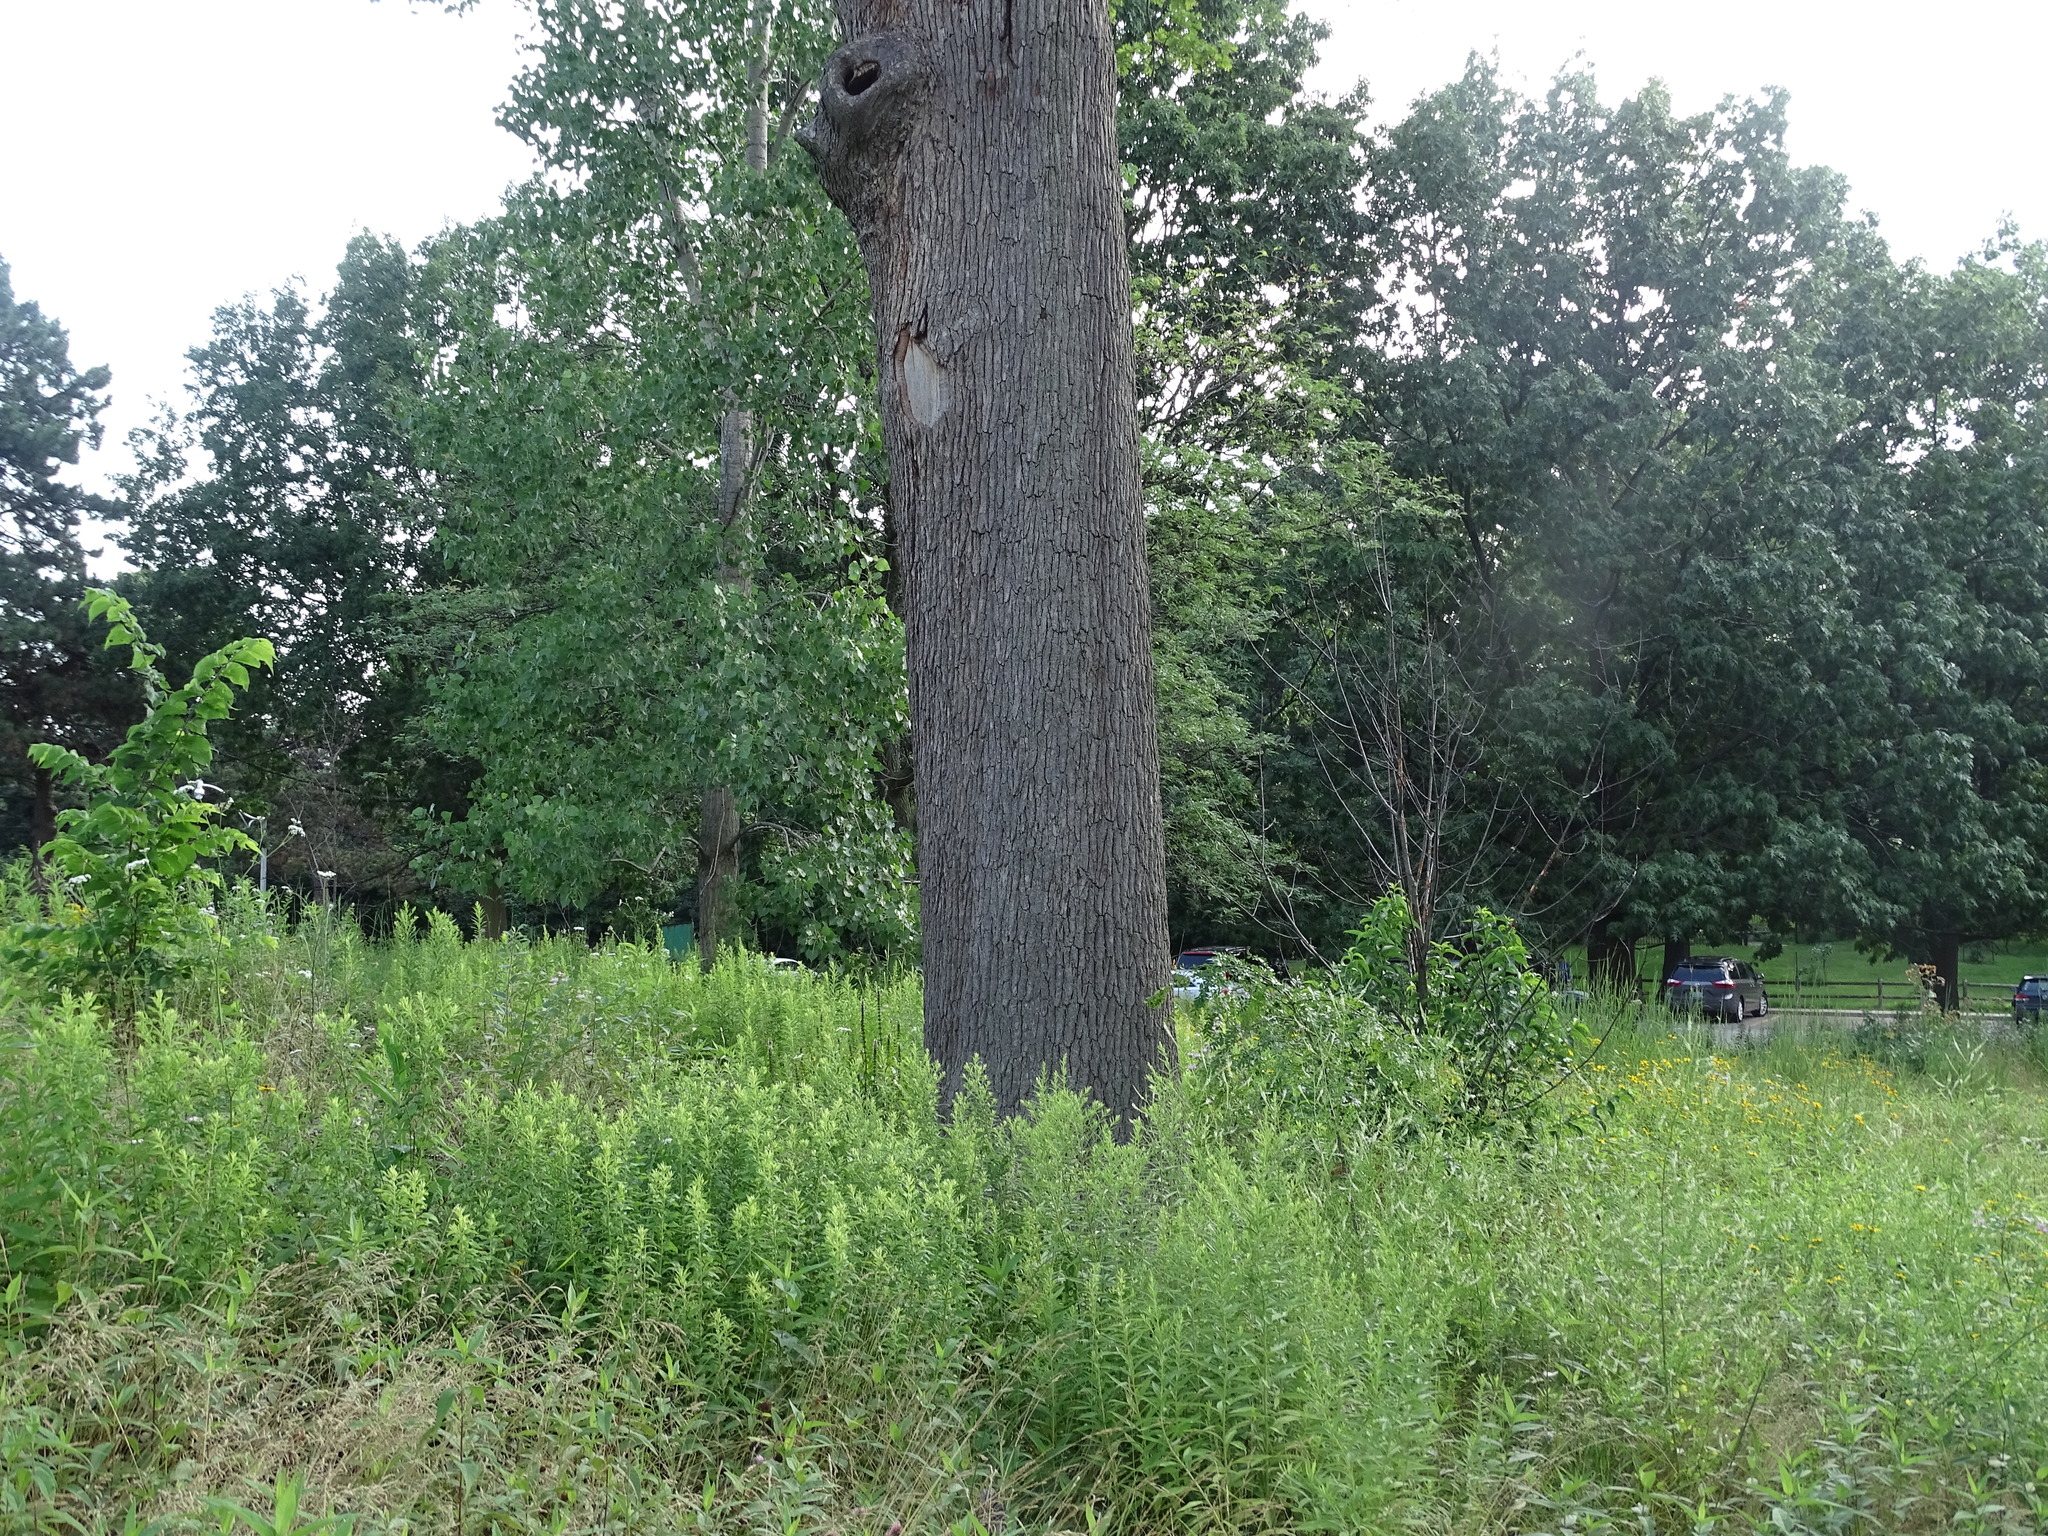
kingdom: Plantae
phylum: Tracheophyta
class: Magnoliopsida
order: Fagales
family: Fagaceae
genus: Quercus
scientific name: Quercus alba
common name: White oak
